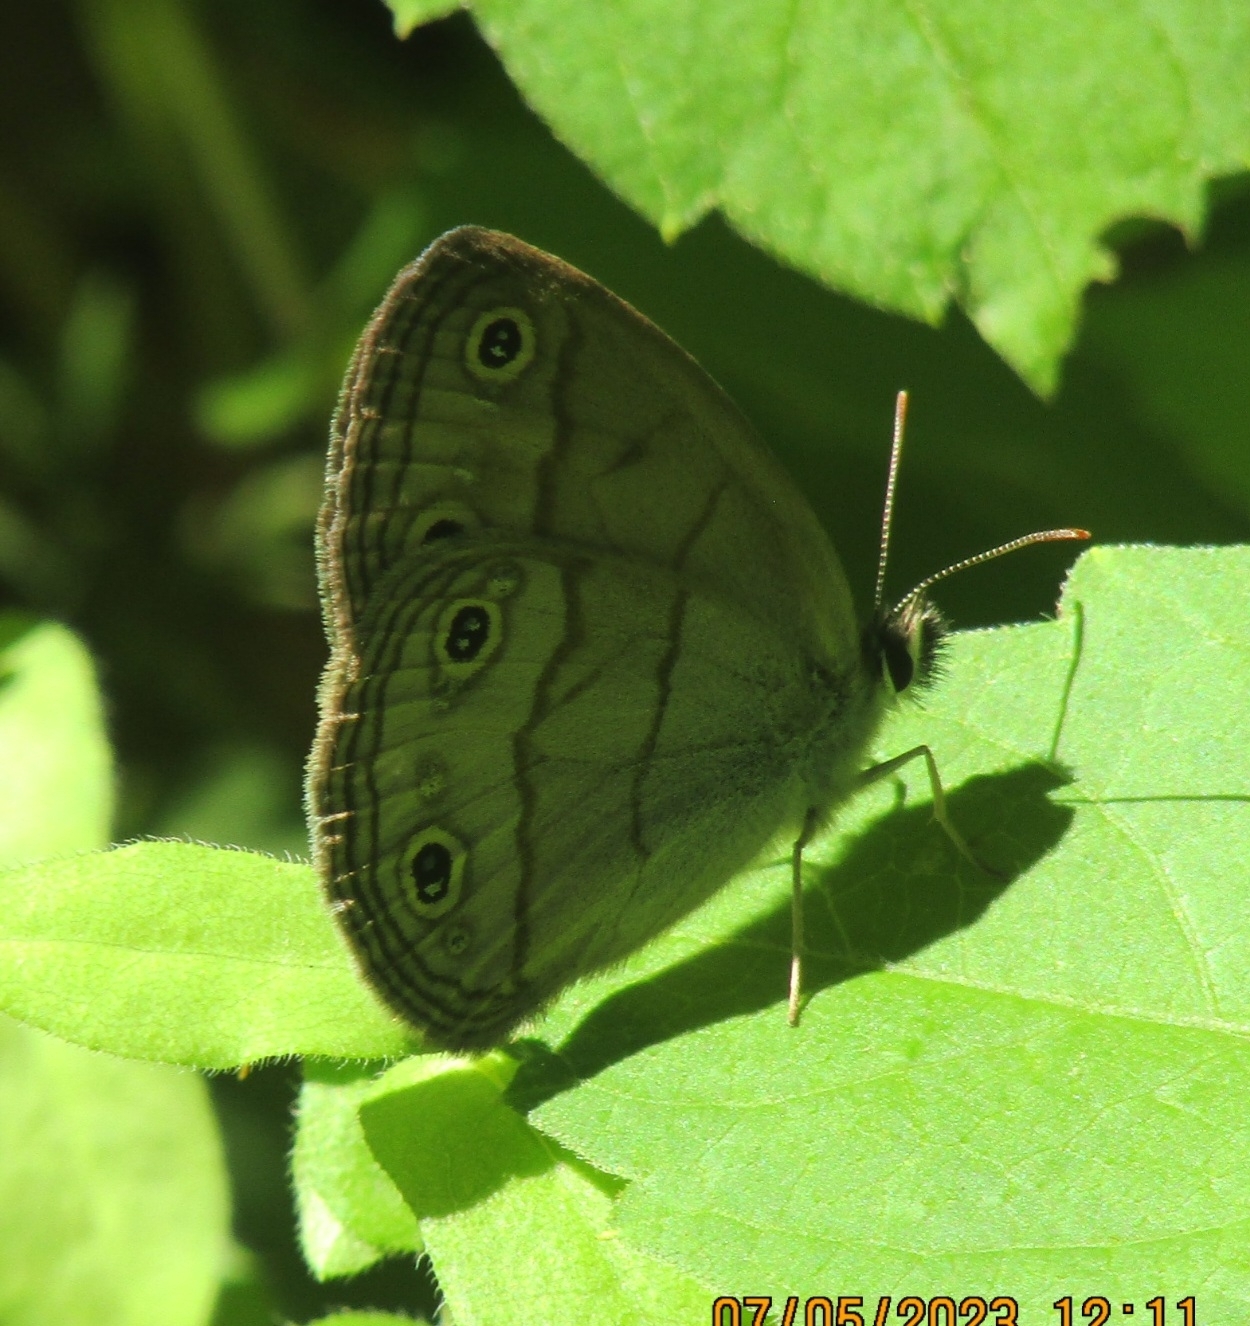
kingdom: Animalia
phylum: Arthropoda
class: Insecta
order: Lepidoptera
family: Nymphalidae
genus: Euptychia
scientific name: Euptychia cymela
